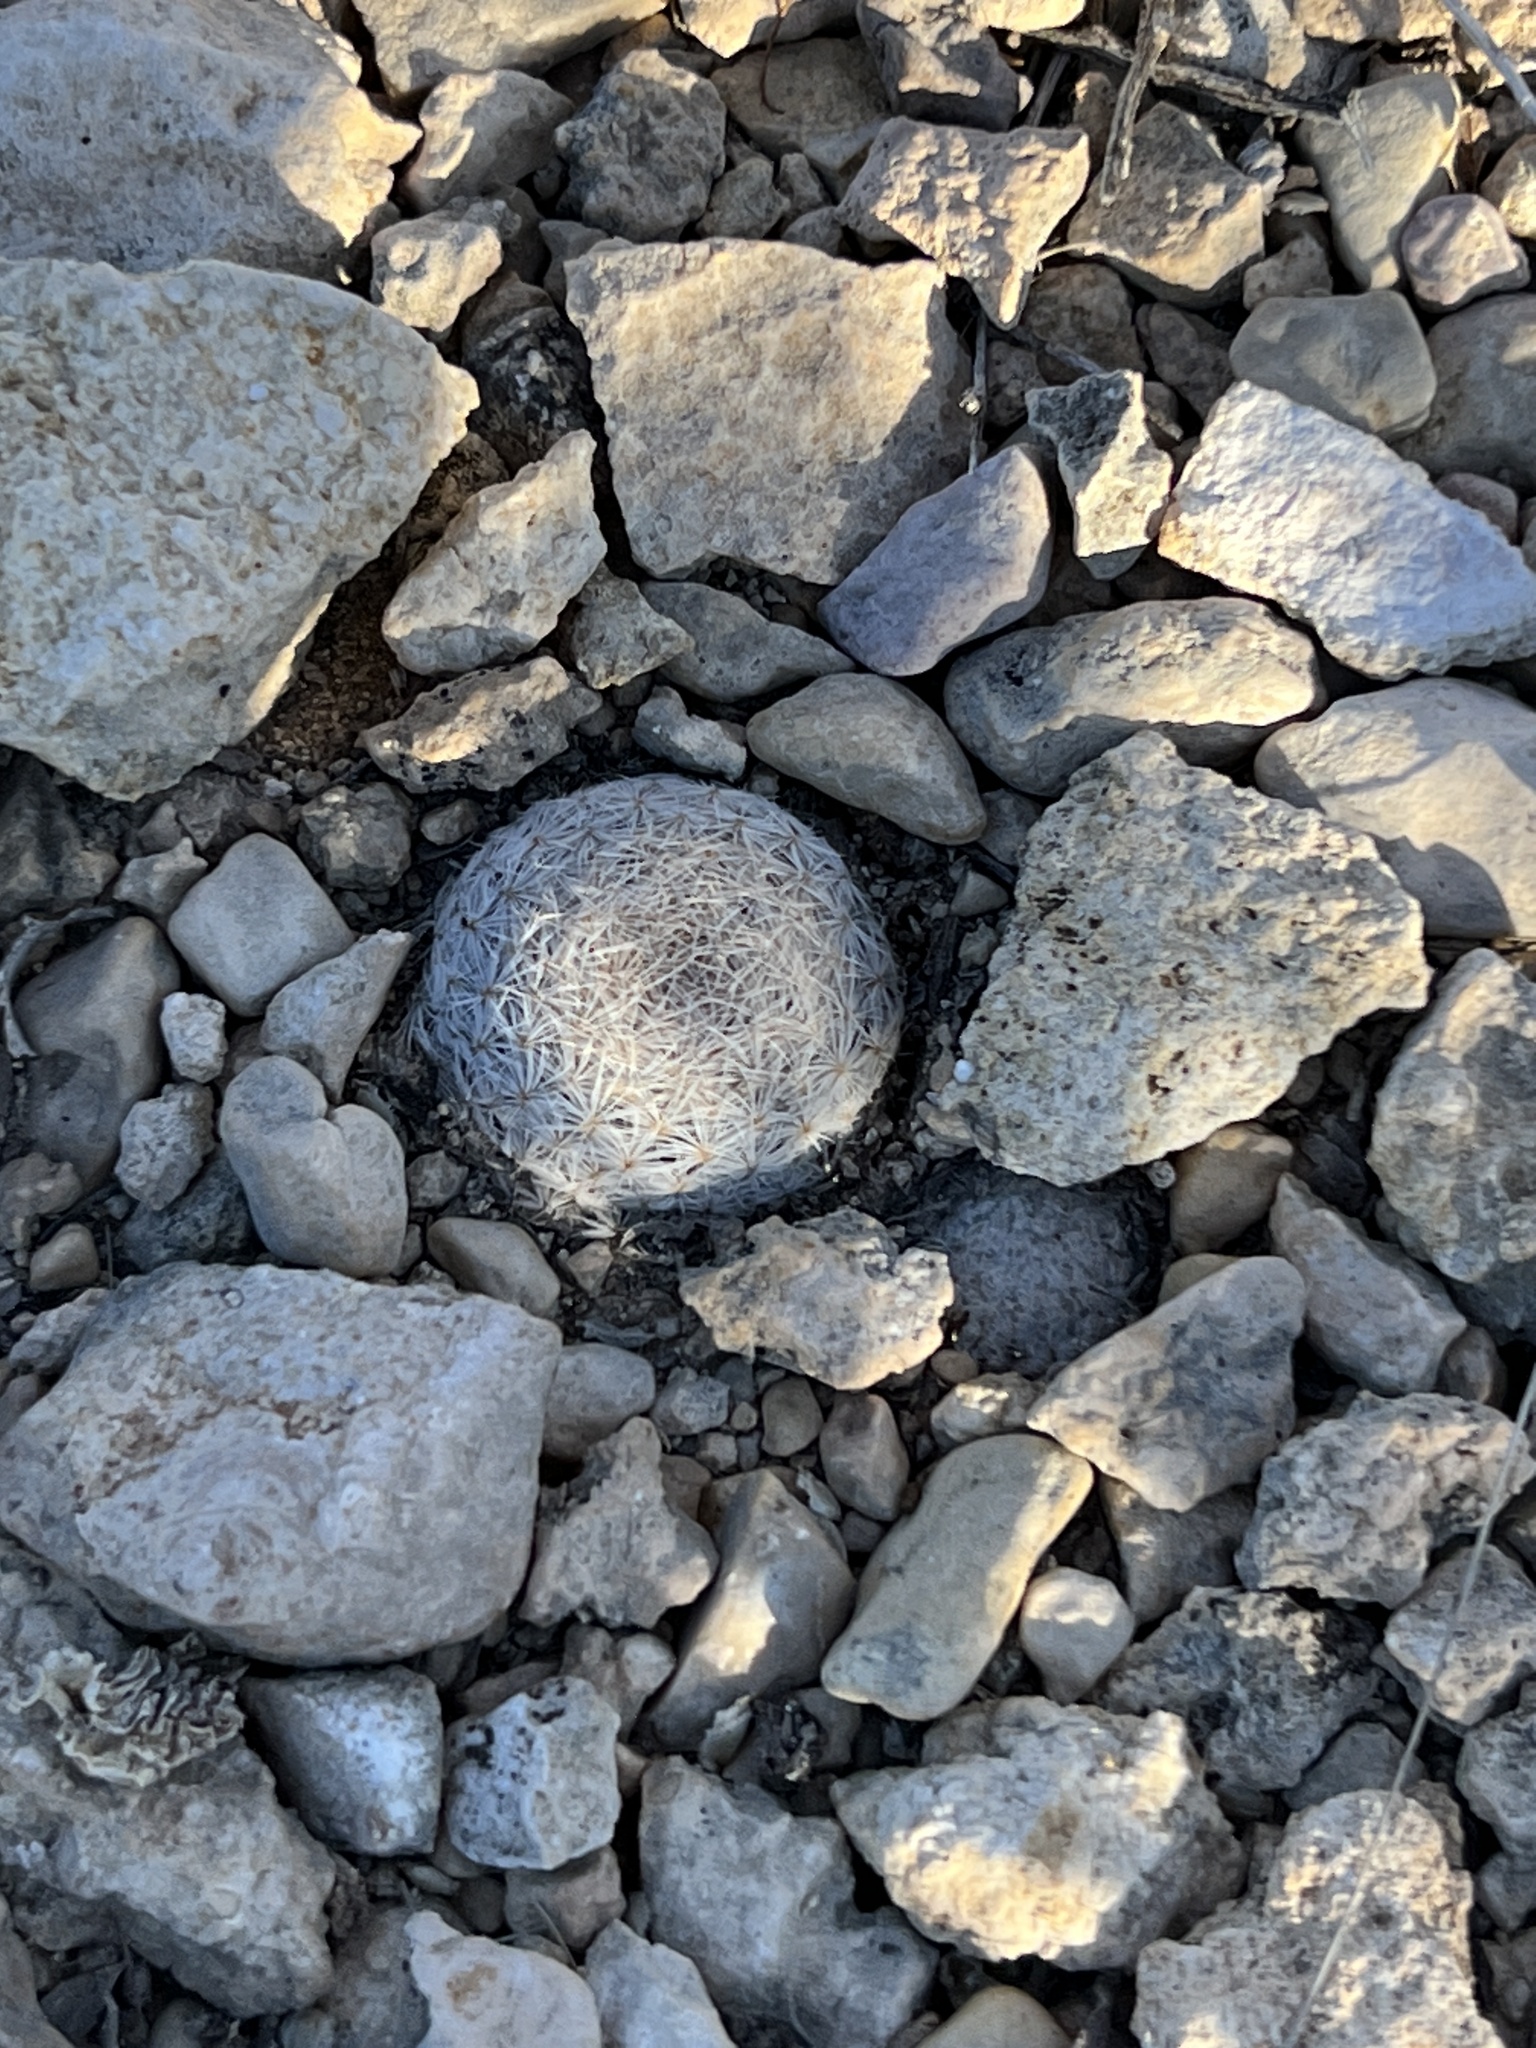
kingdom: Plantae
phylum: Tracheophyta
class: Magnoliopsida
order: Caryophyllales
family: Cactaceae
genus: Epithelantha
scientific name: Epithelantha micromeris
